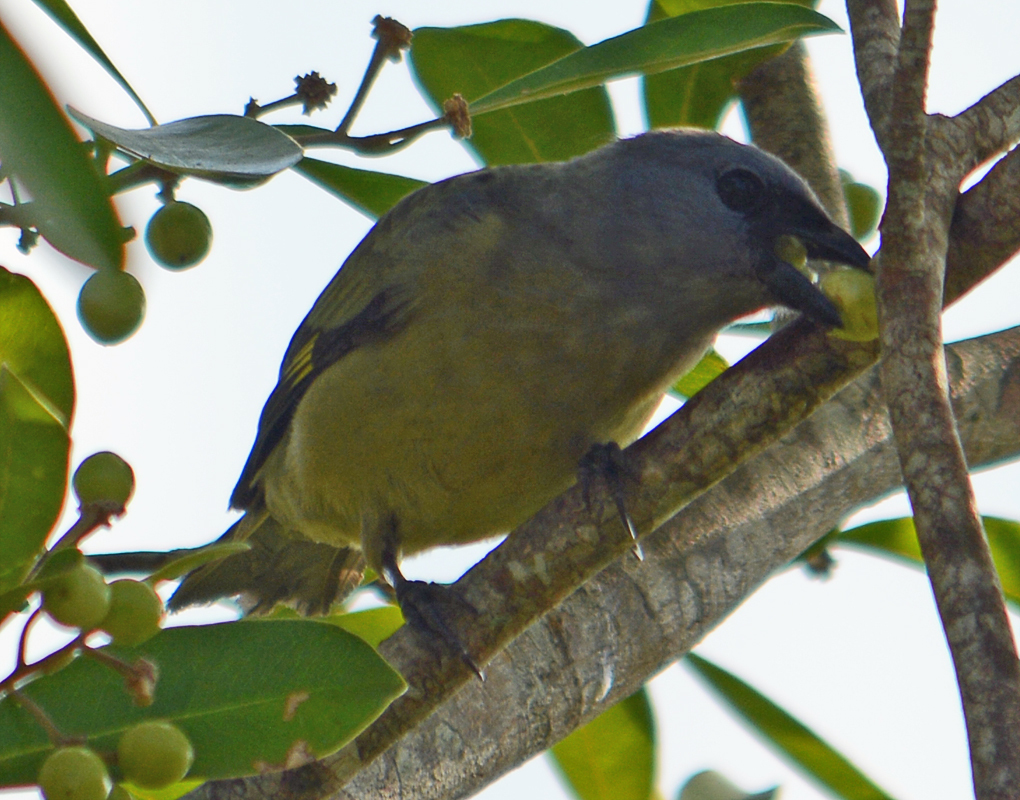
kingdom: Animalia
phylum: Chordata
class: Aves
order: Passeriformes
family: Thraupidae
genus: Thraupis
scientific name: Thraupis abbas
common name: Yellow-winged tanager
